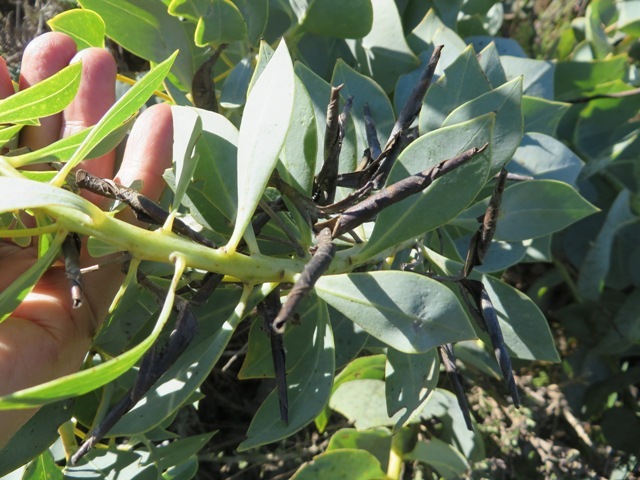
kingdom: Plantae
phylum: Tracheophyta
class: Magnoliopsida
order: Fabales
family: Fabaceae
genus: Rafnia
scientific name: Rafnia triflora
